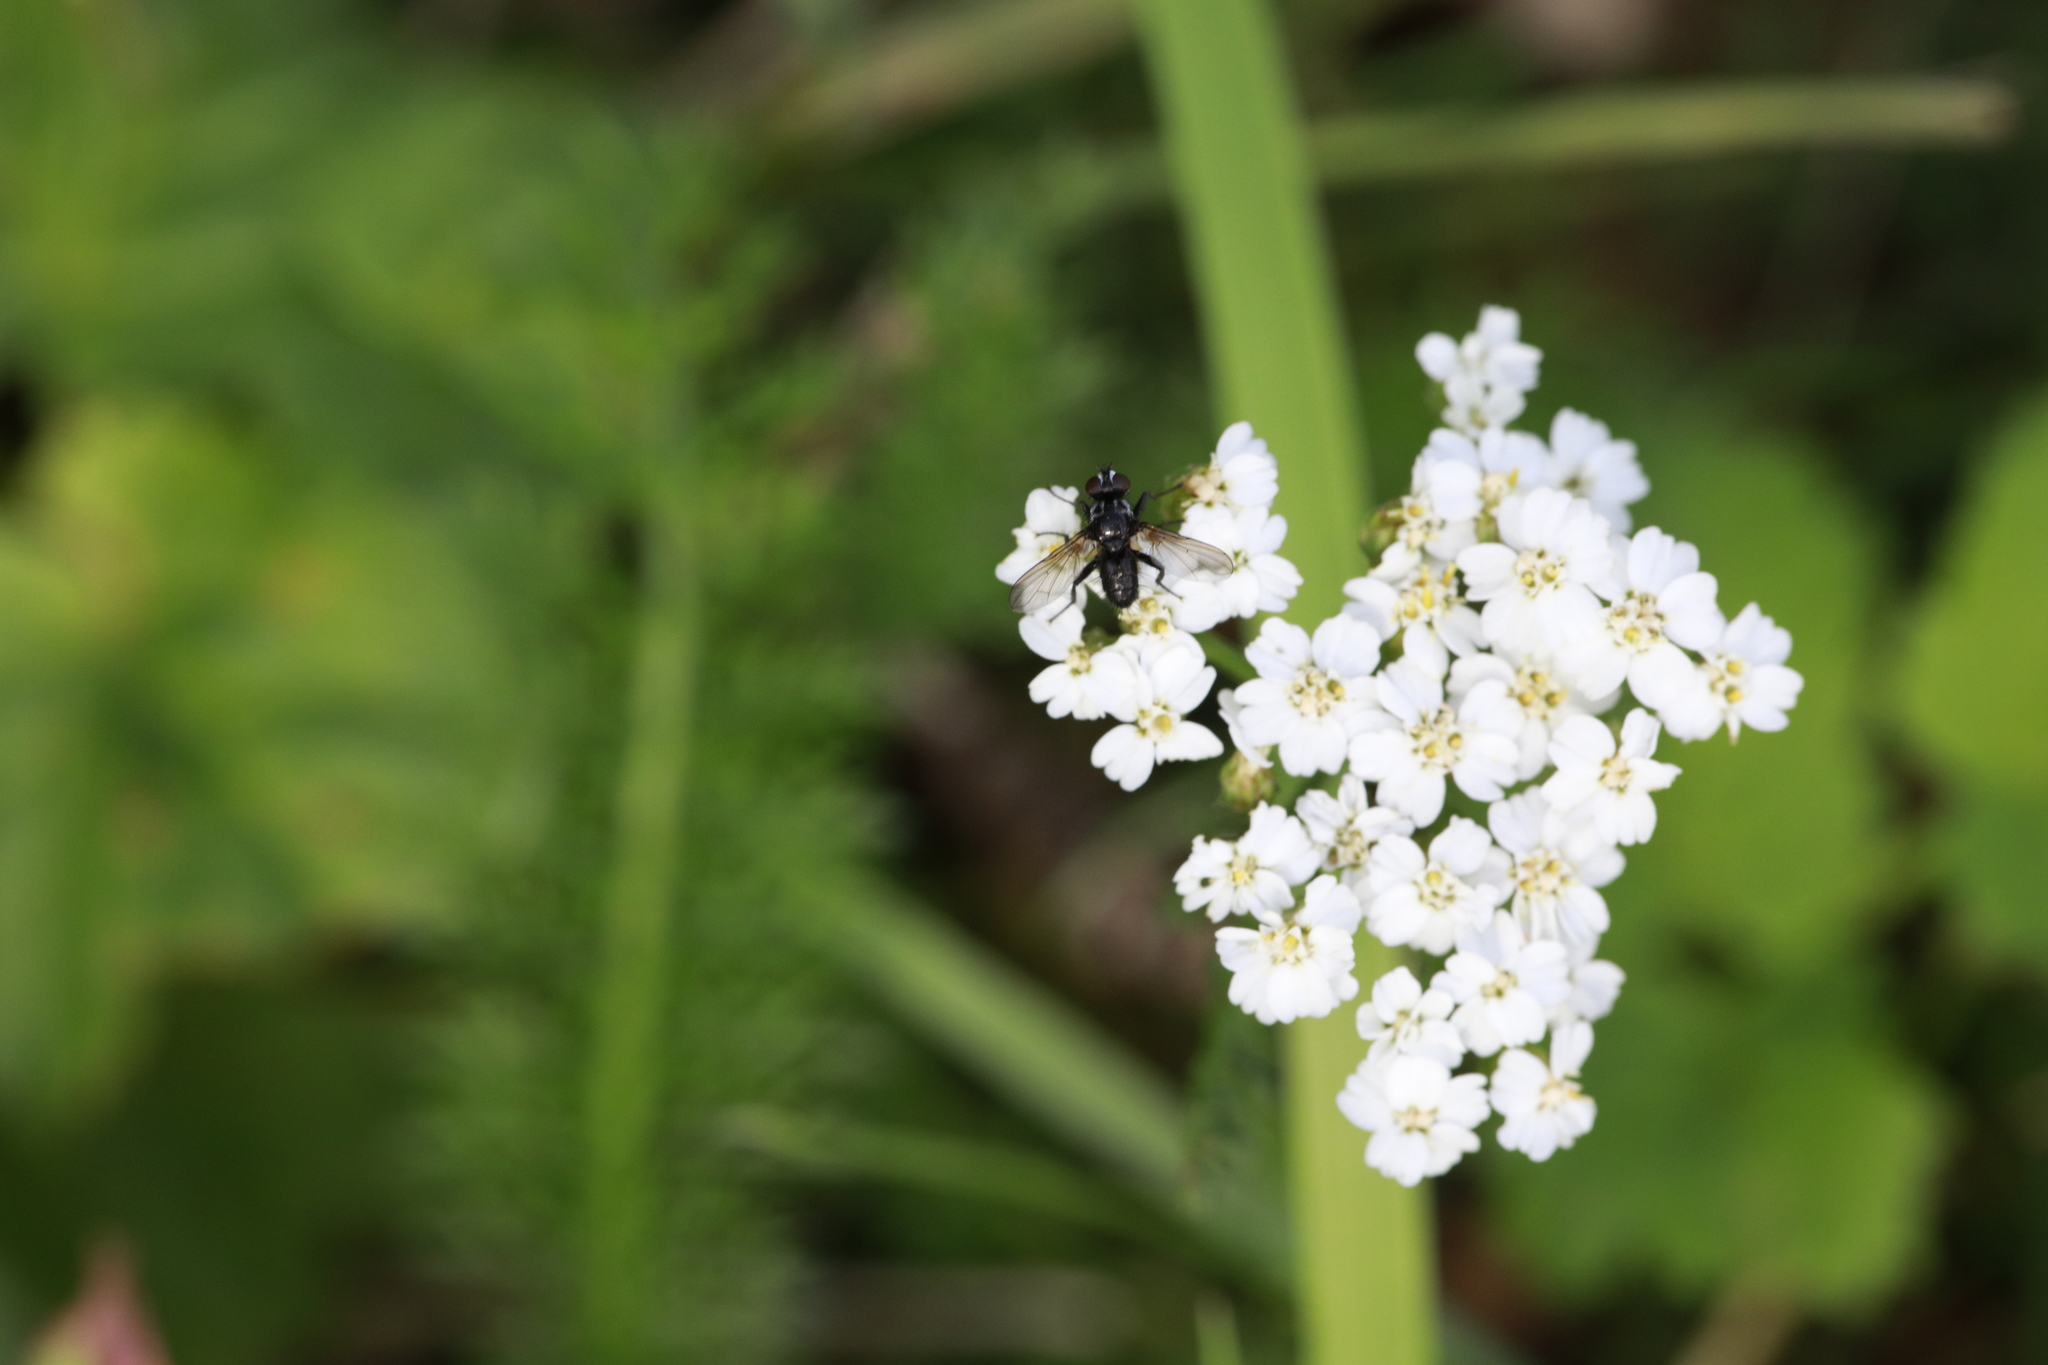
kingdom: Plantae
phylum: Tracheophyta
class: Magnoliopsida
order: Asterales
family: Asteraceae
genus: Achillea
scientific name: Achillea millefolium
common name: Yarrow
